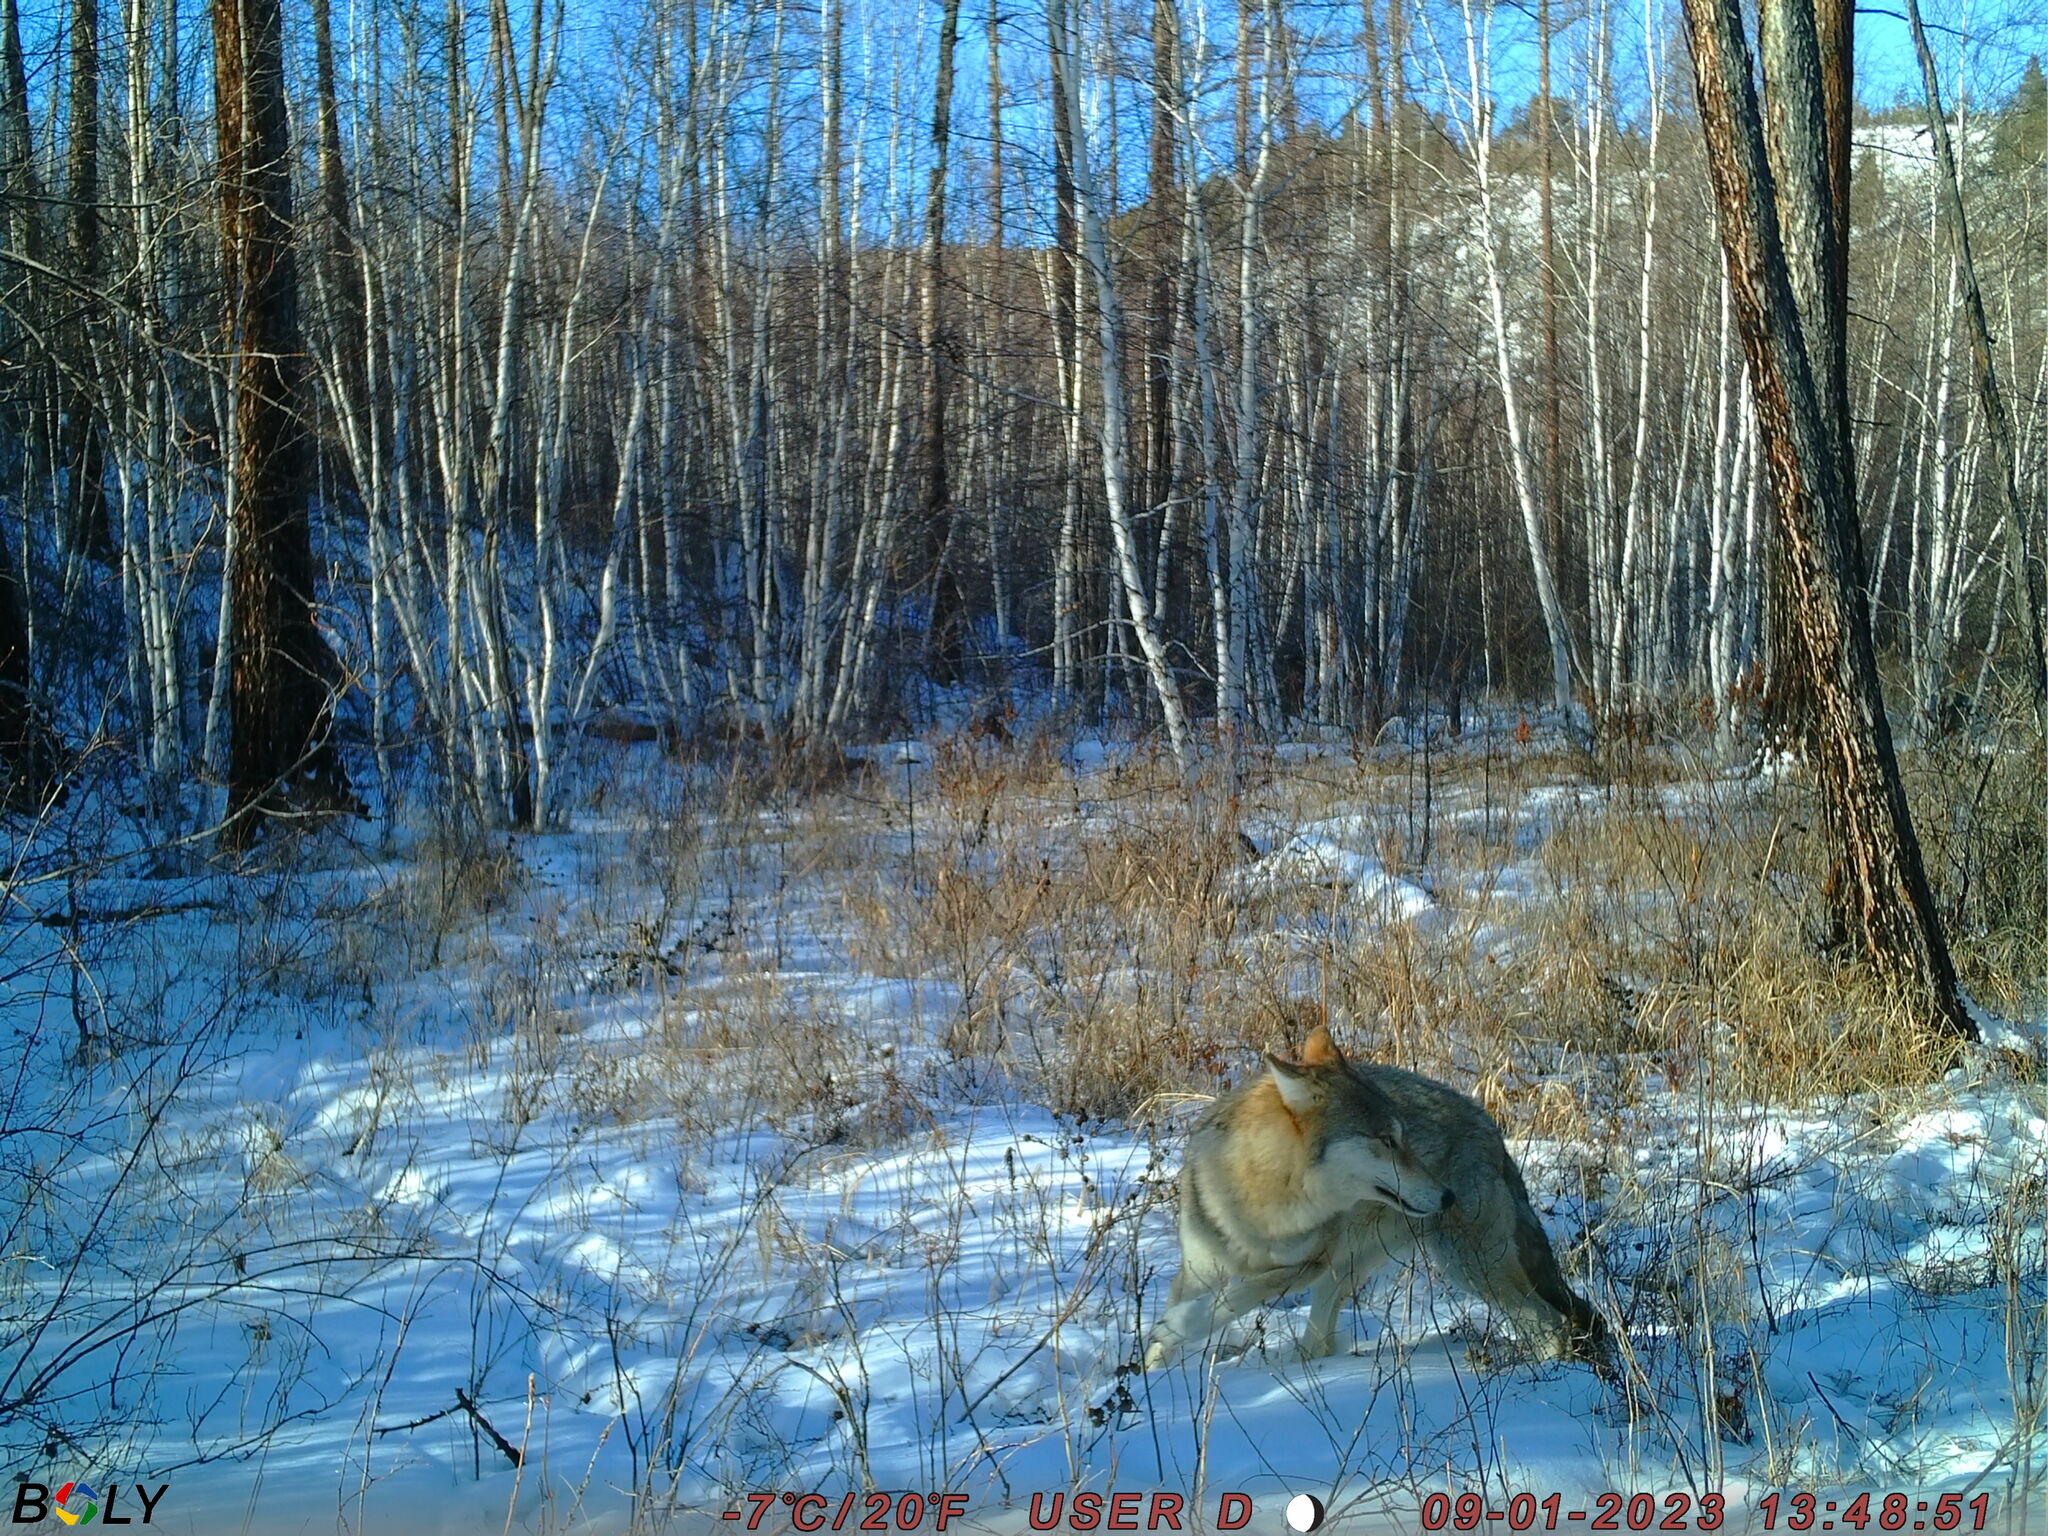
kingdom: Animalia
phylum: Chordata
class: Mammalia
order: Carnivora
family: Canidae
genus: Canis
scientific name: Canis lupus
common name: Gray wolf
